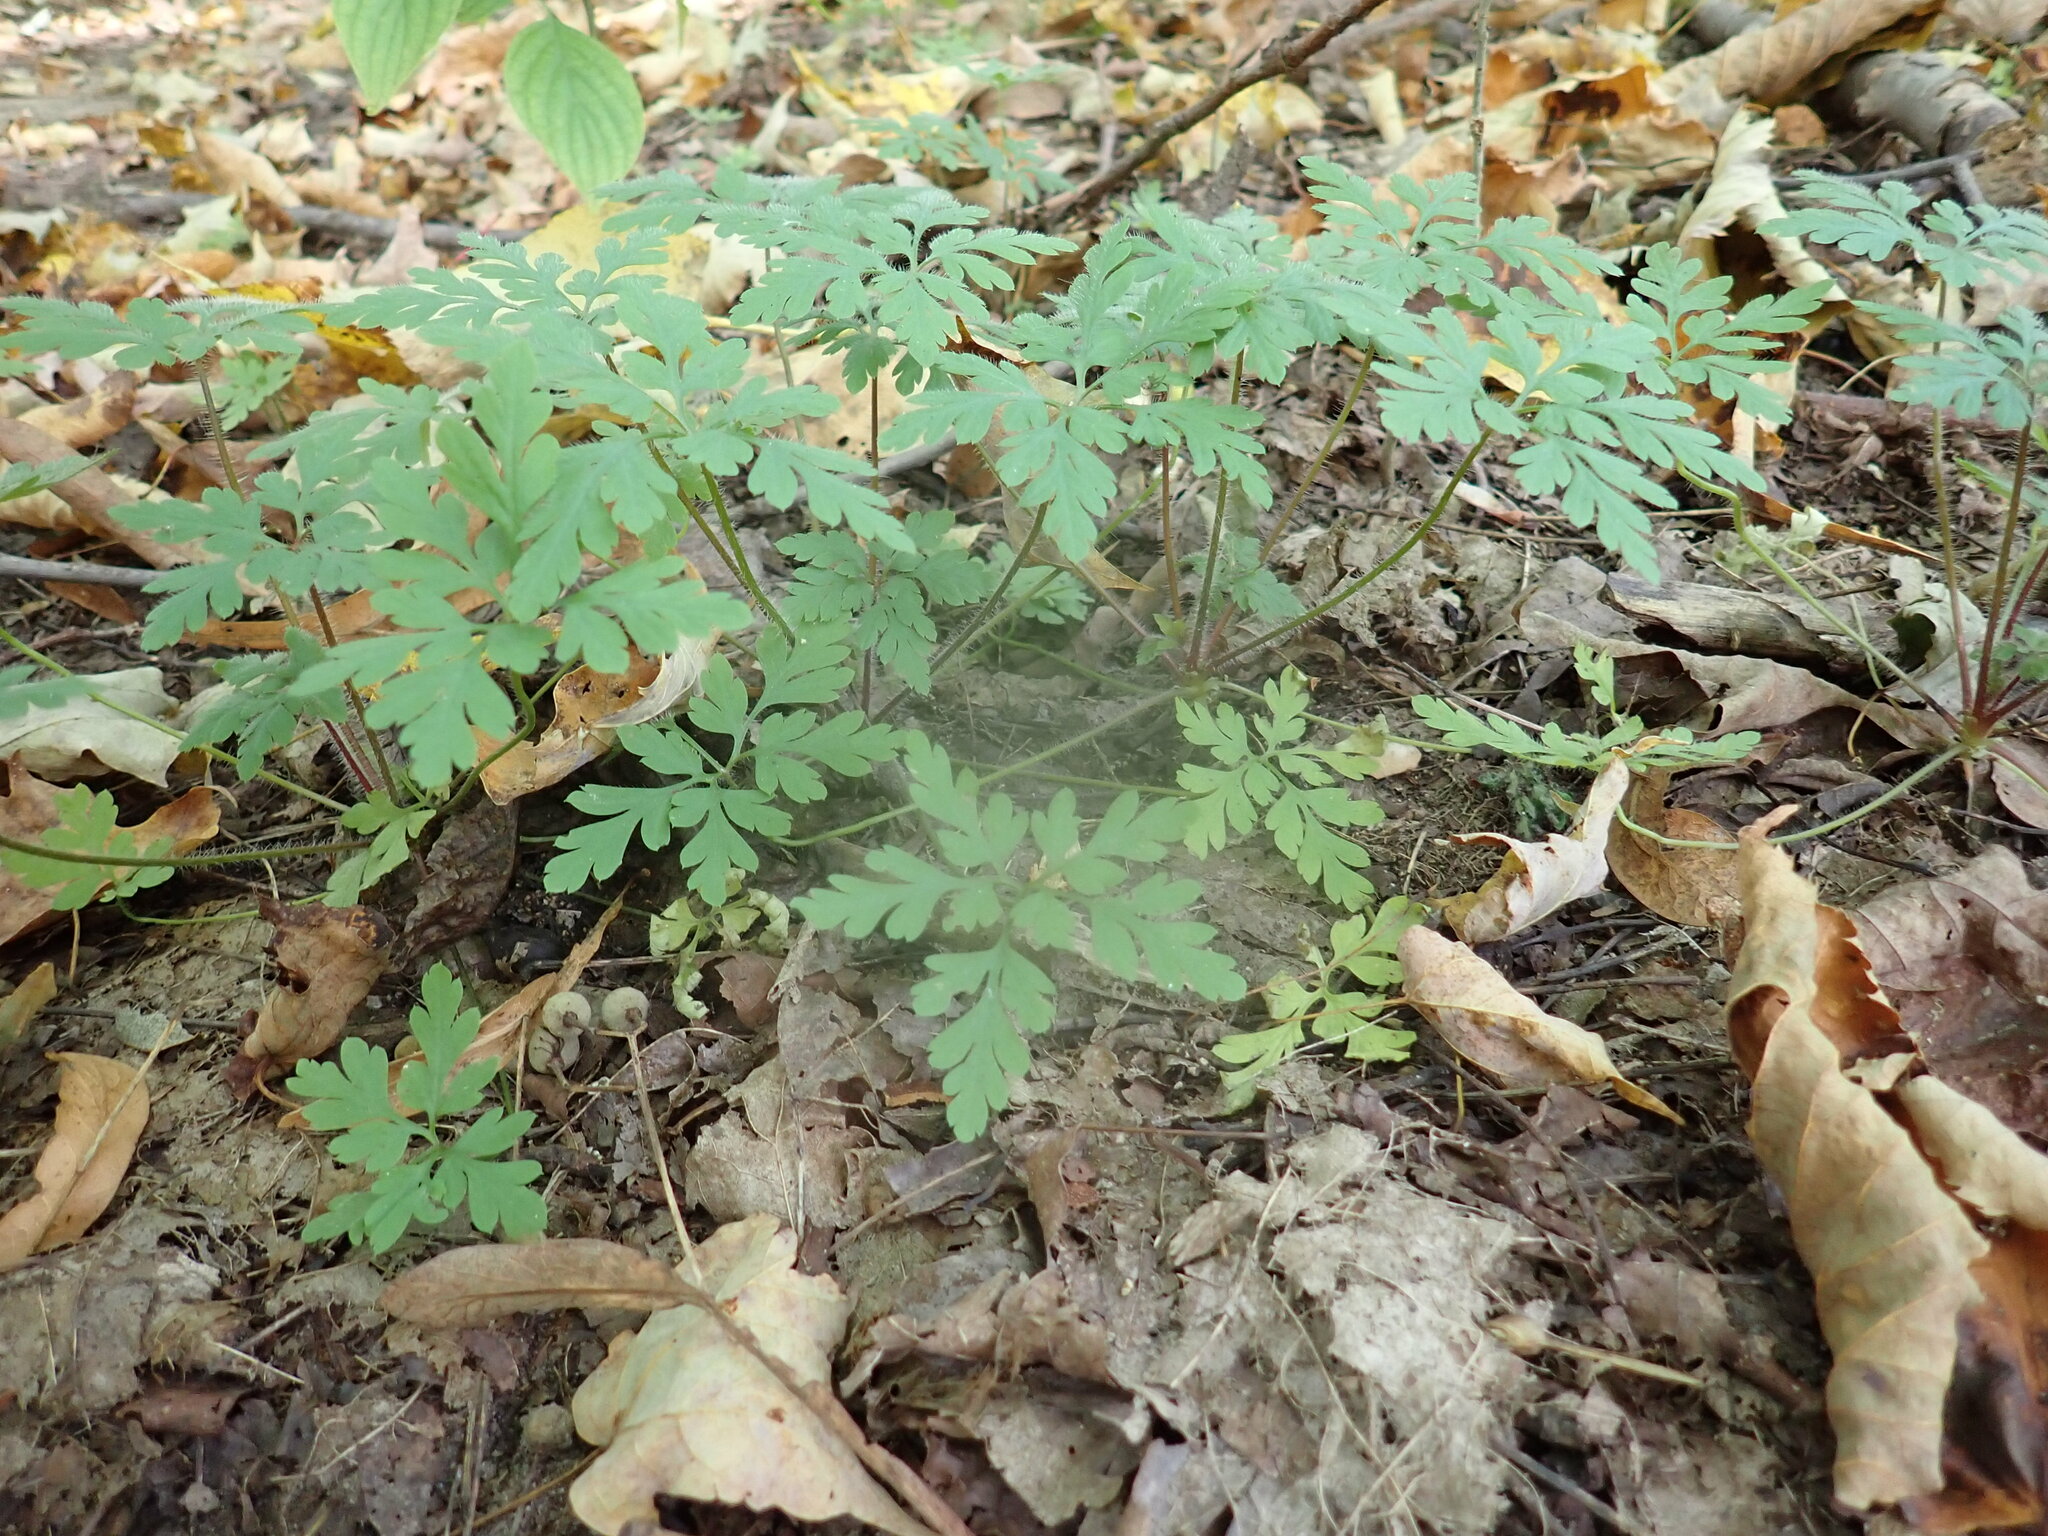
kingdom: Plantae
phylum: Tracheophyta
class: Magnoliopsida
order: Geraniales
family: Geraniaceae
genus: Geranium
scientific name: Geranium robertianum
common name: Herb-robert
